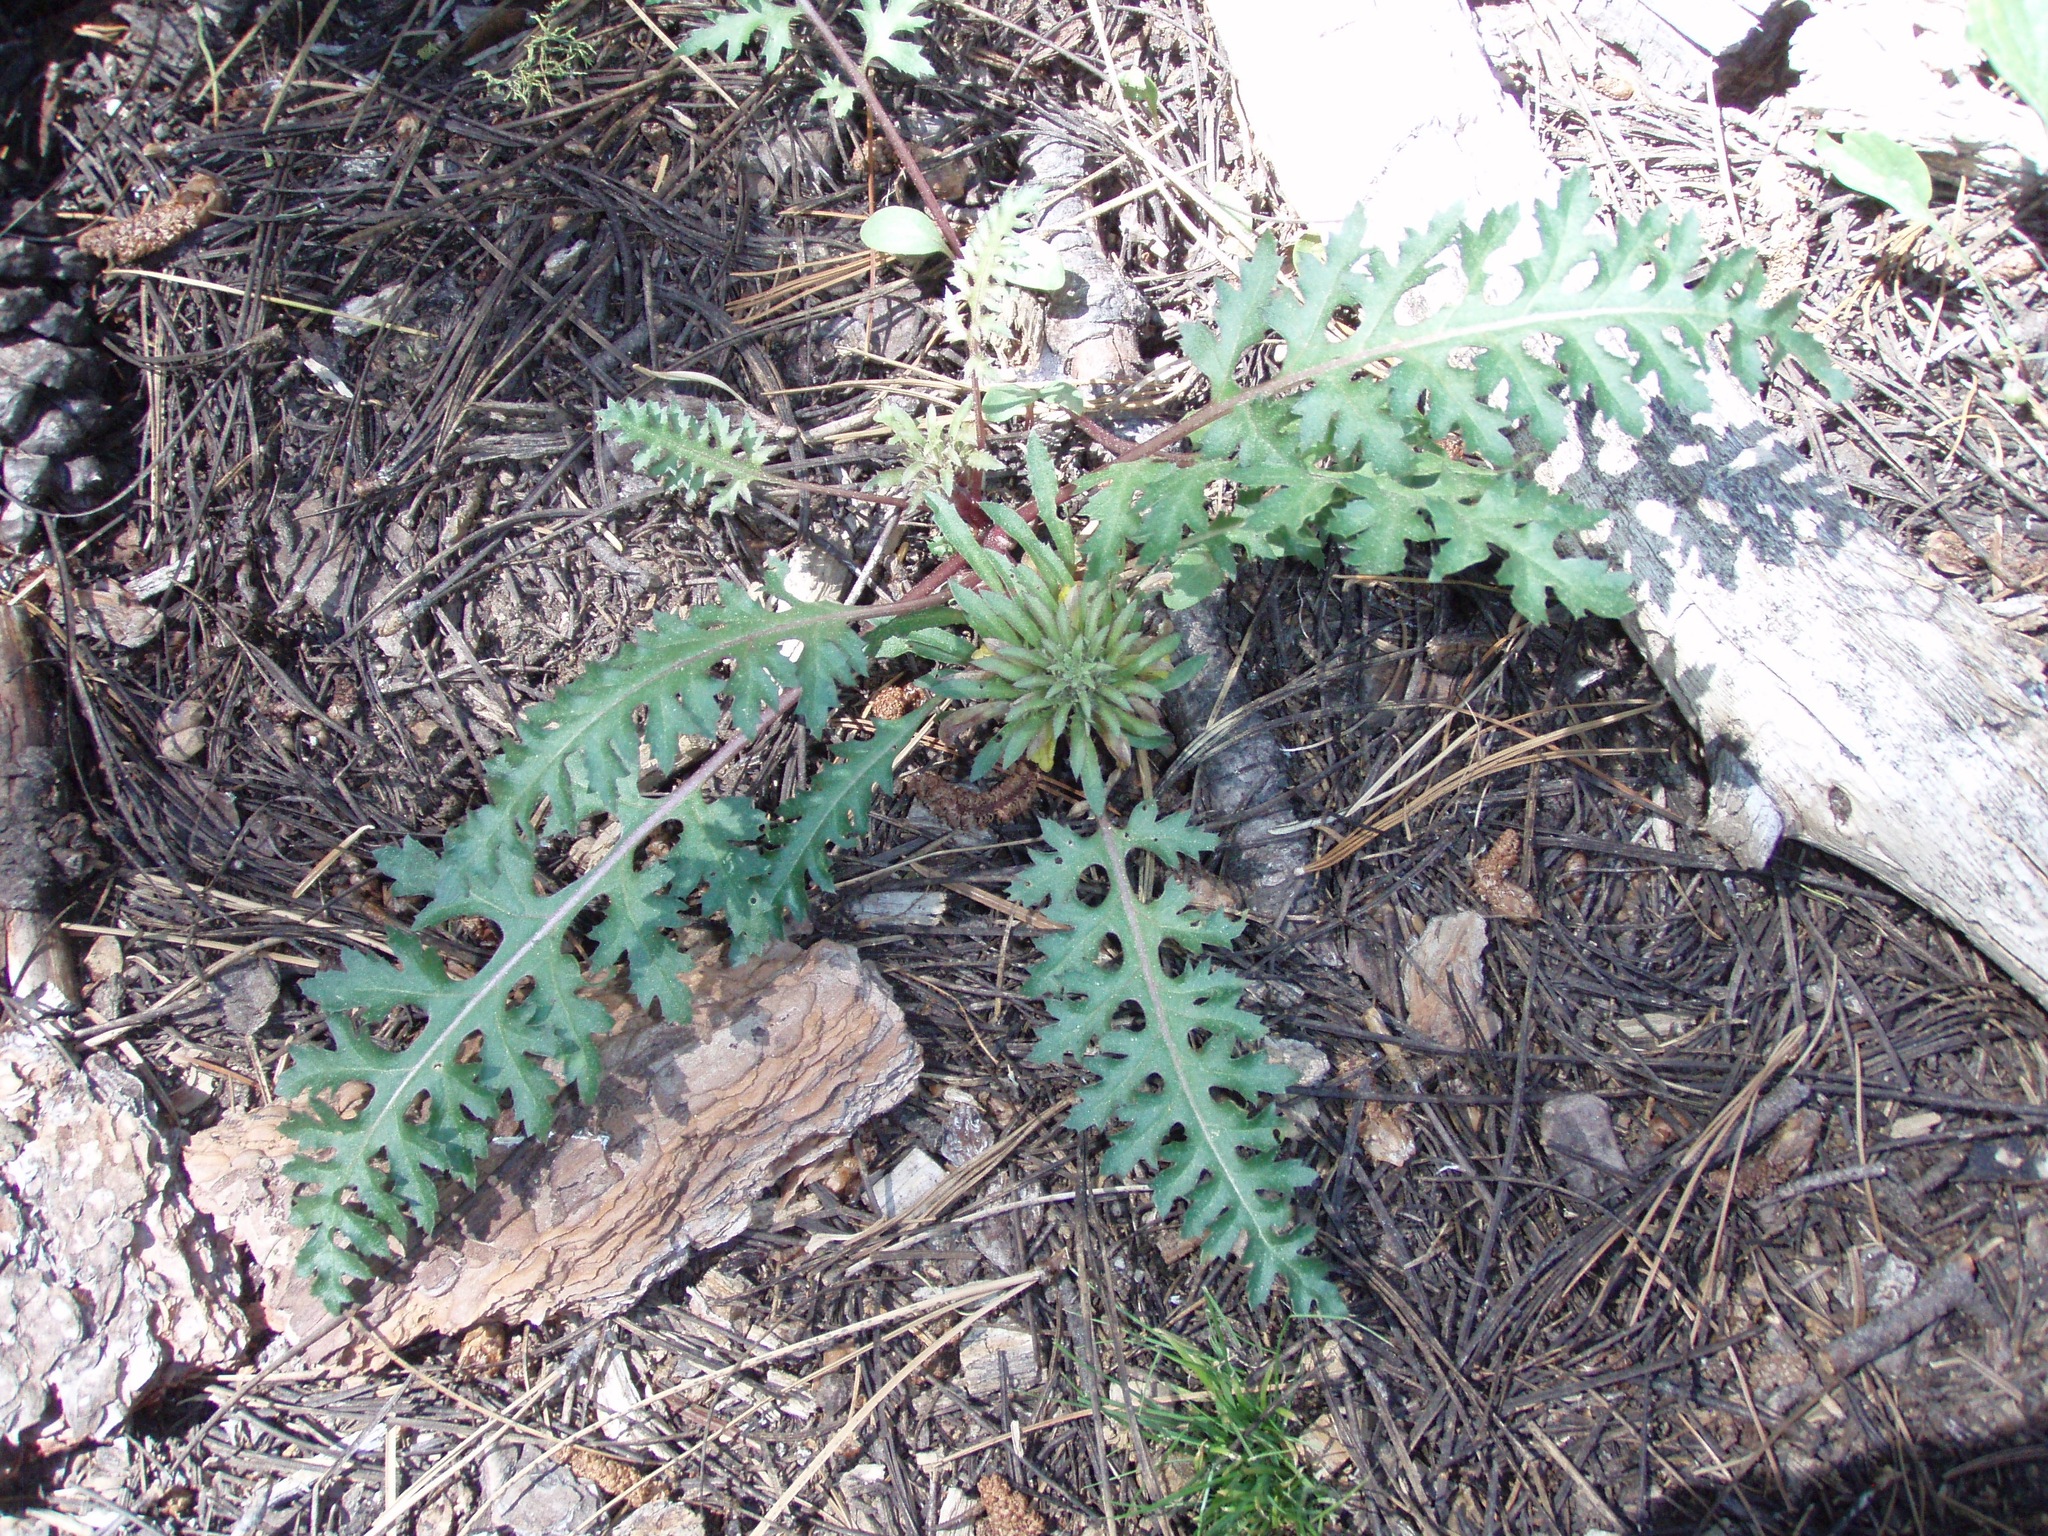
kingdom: Plantae
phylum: Tracheophyta
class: Magnoliopsida
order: Lamiales
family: Orobanchaceae
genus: Pedicularis
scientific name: Pedicularis semibarbata
